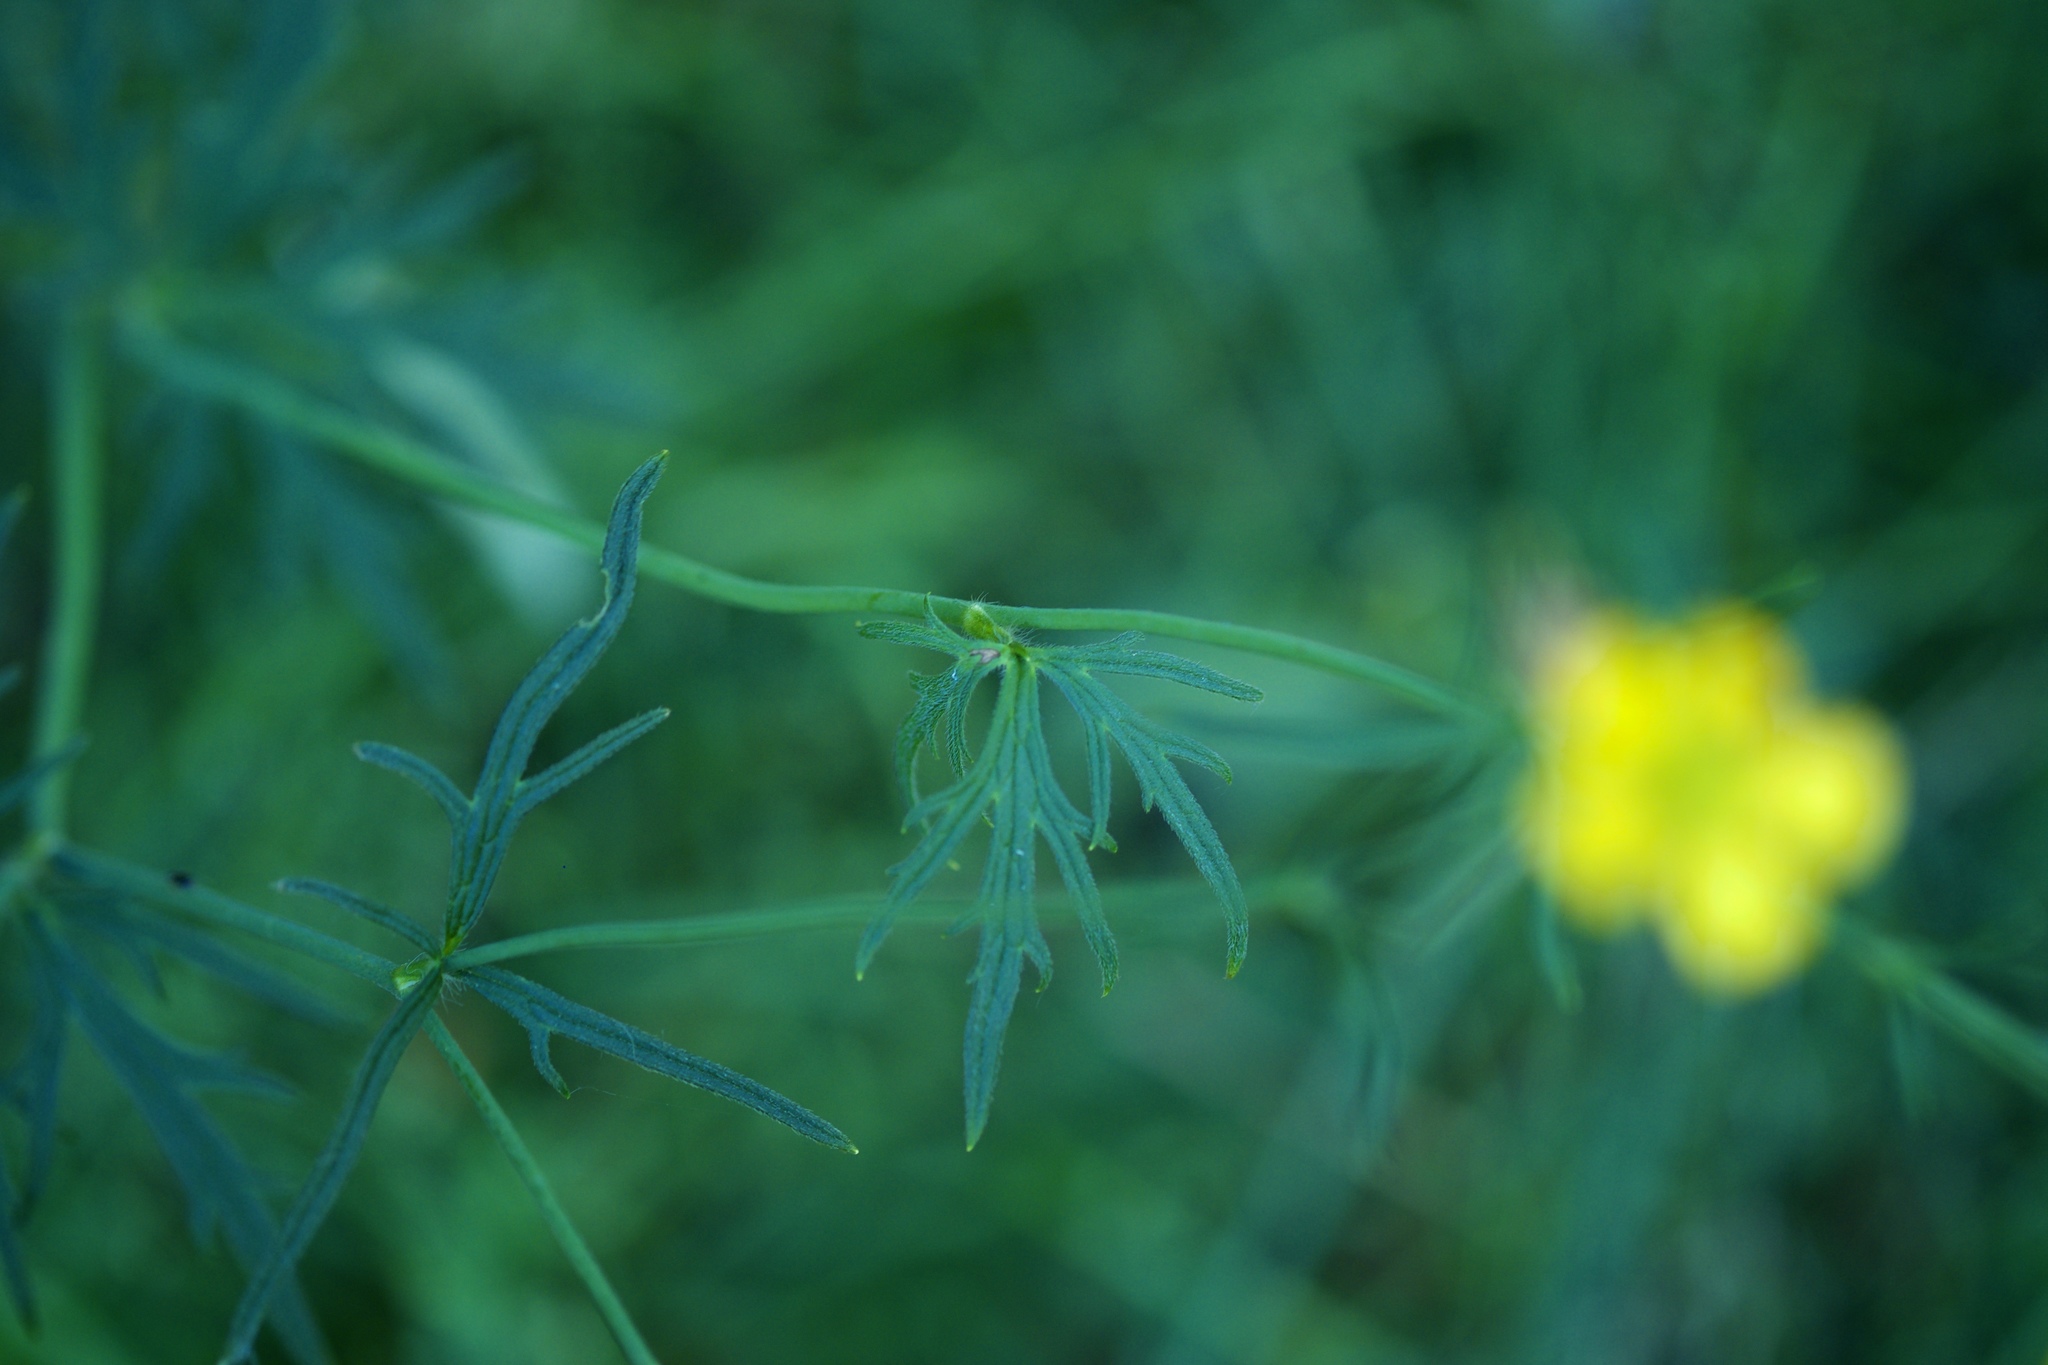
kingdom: Plantae
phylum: Tracheophyta
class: Magnoliopsida
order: Ranunculales
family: Ranunculaceae
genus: Ranunculus
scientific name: Ranunculus acris
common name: Meadow buttercup
